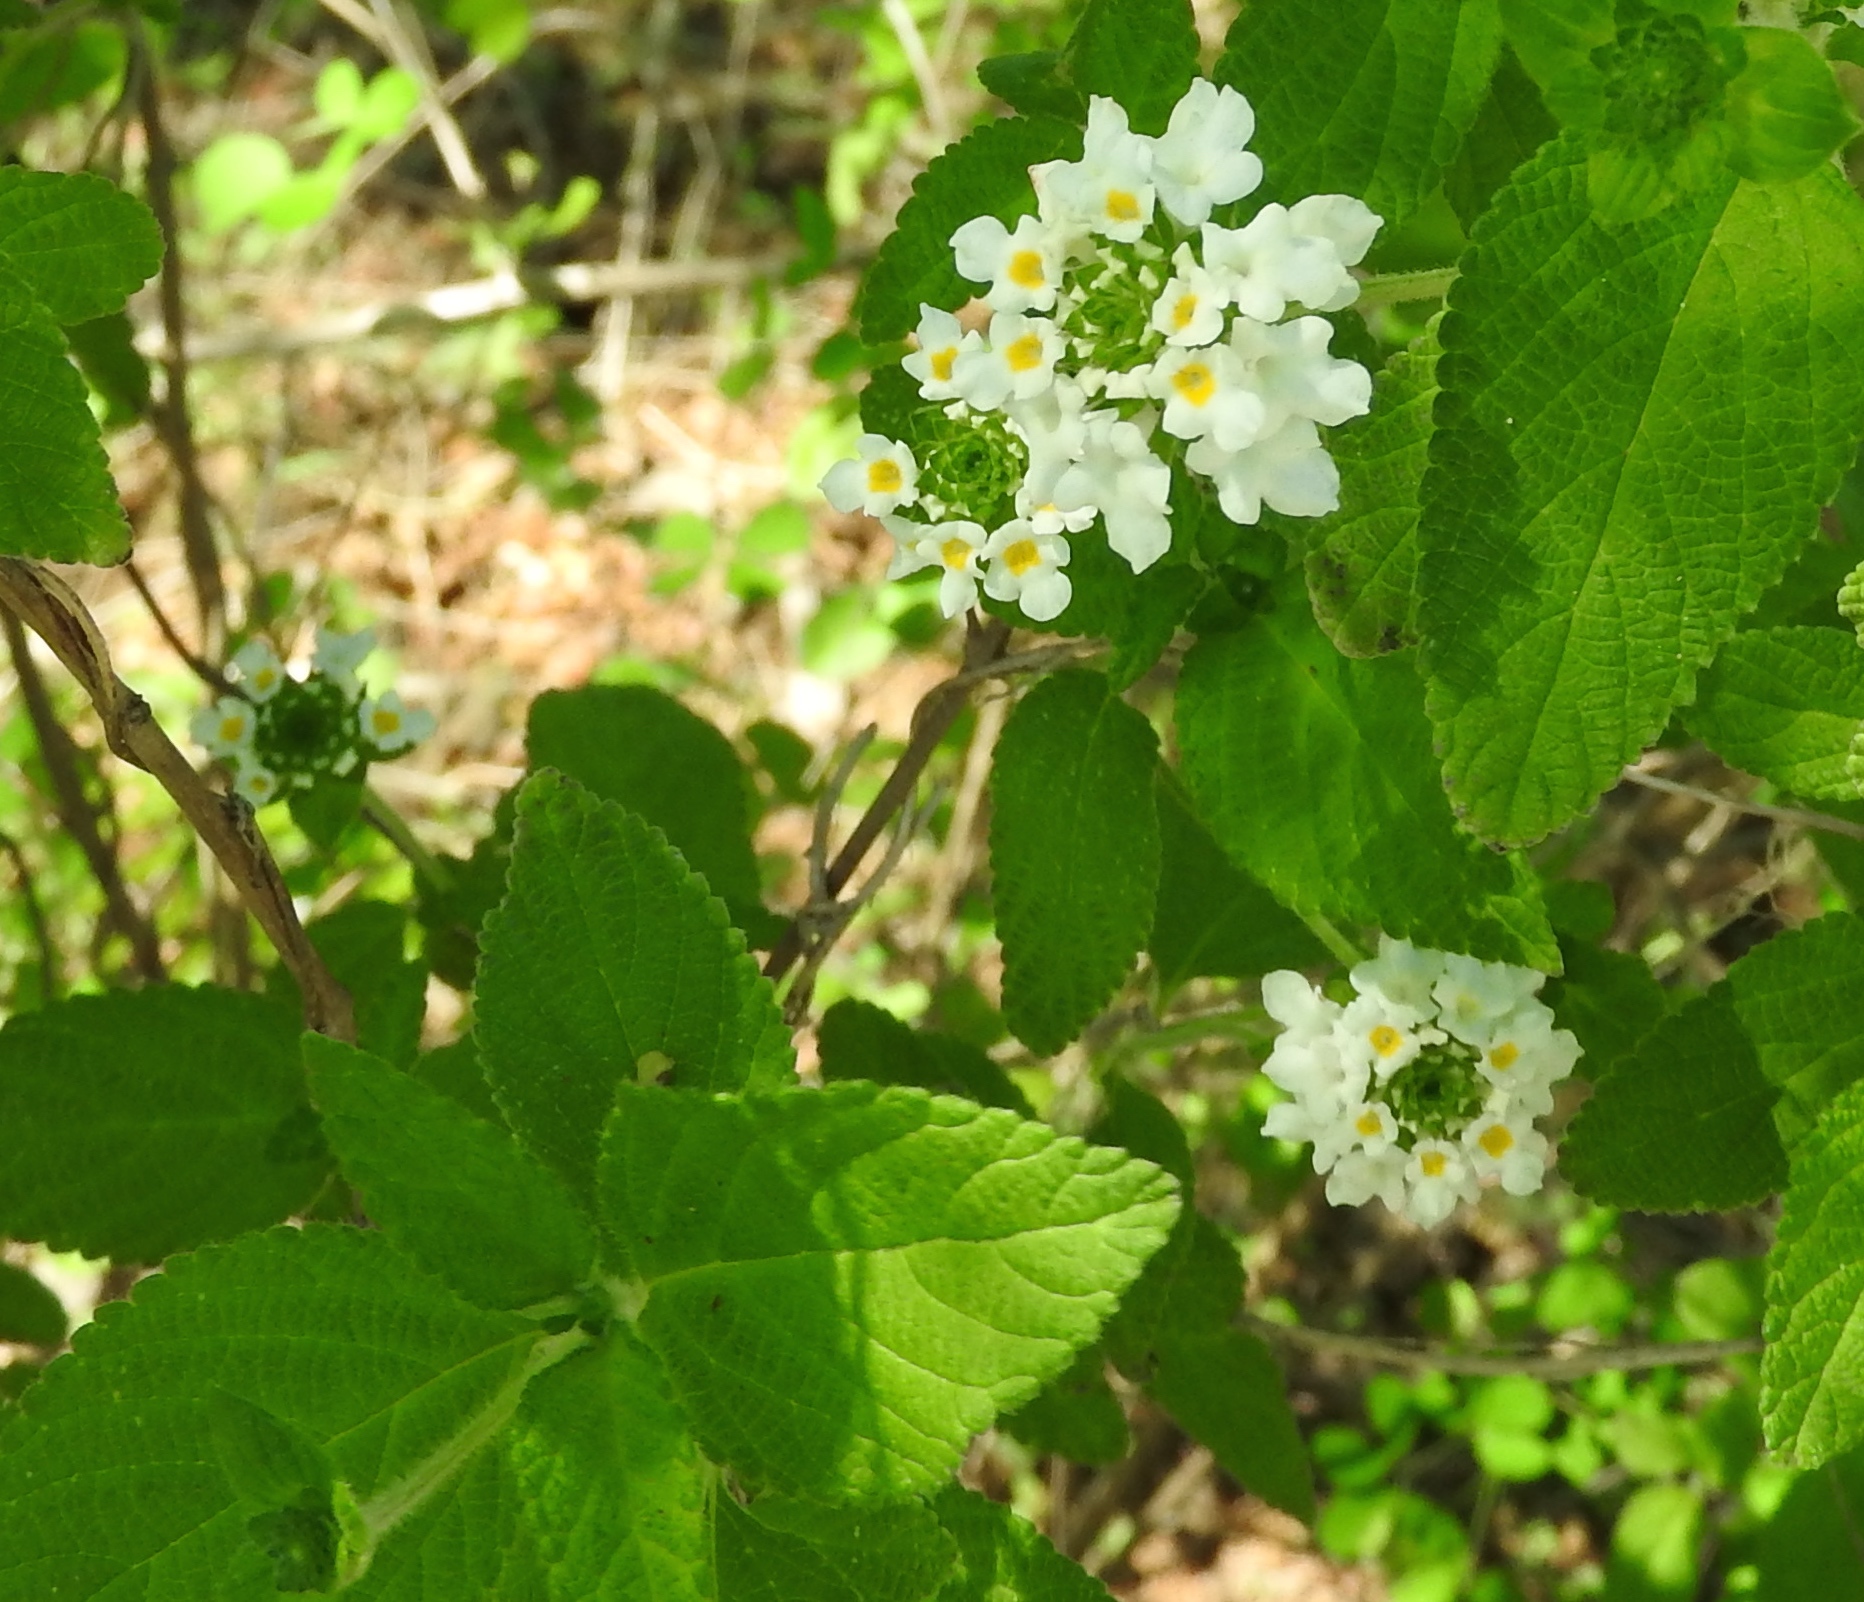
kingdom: Plantae
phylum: Tracheophyta
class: Magnoliopsida
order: Lamiales
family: Verbenaceae
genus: Lantana
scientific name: Lantana velutina
